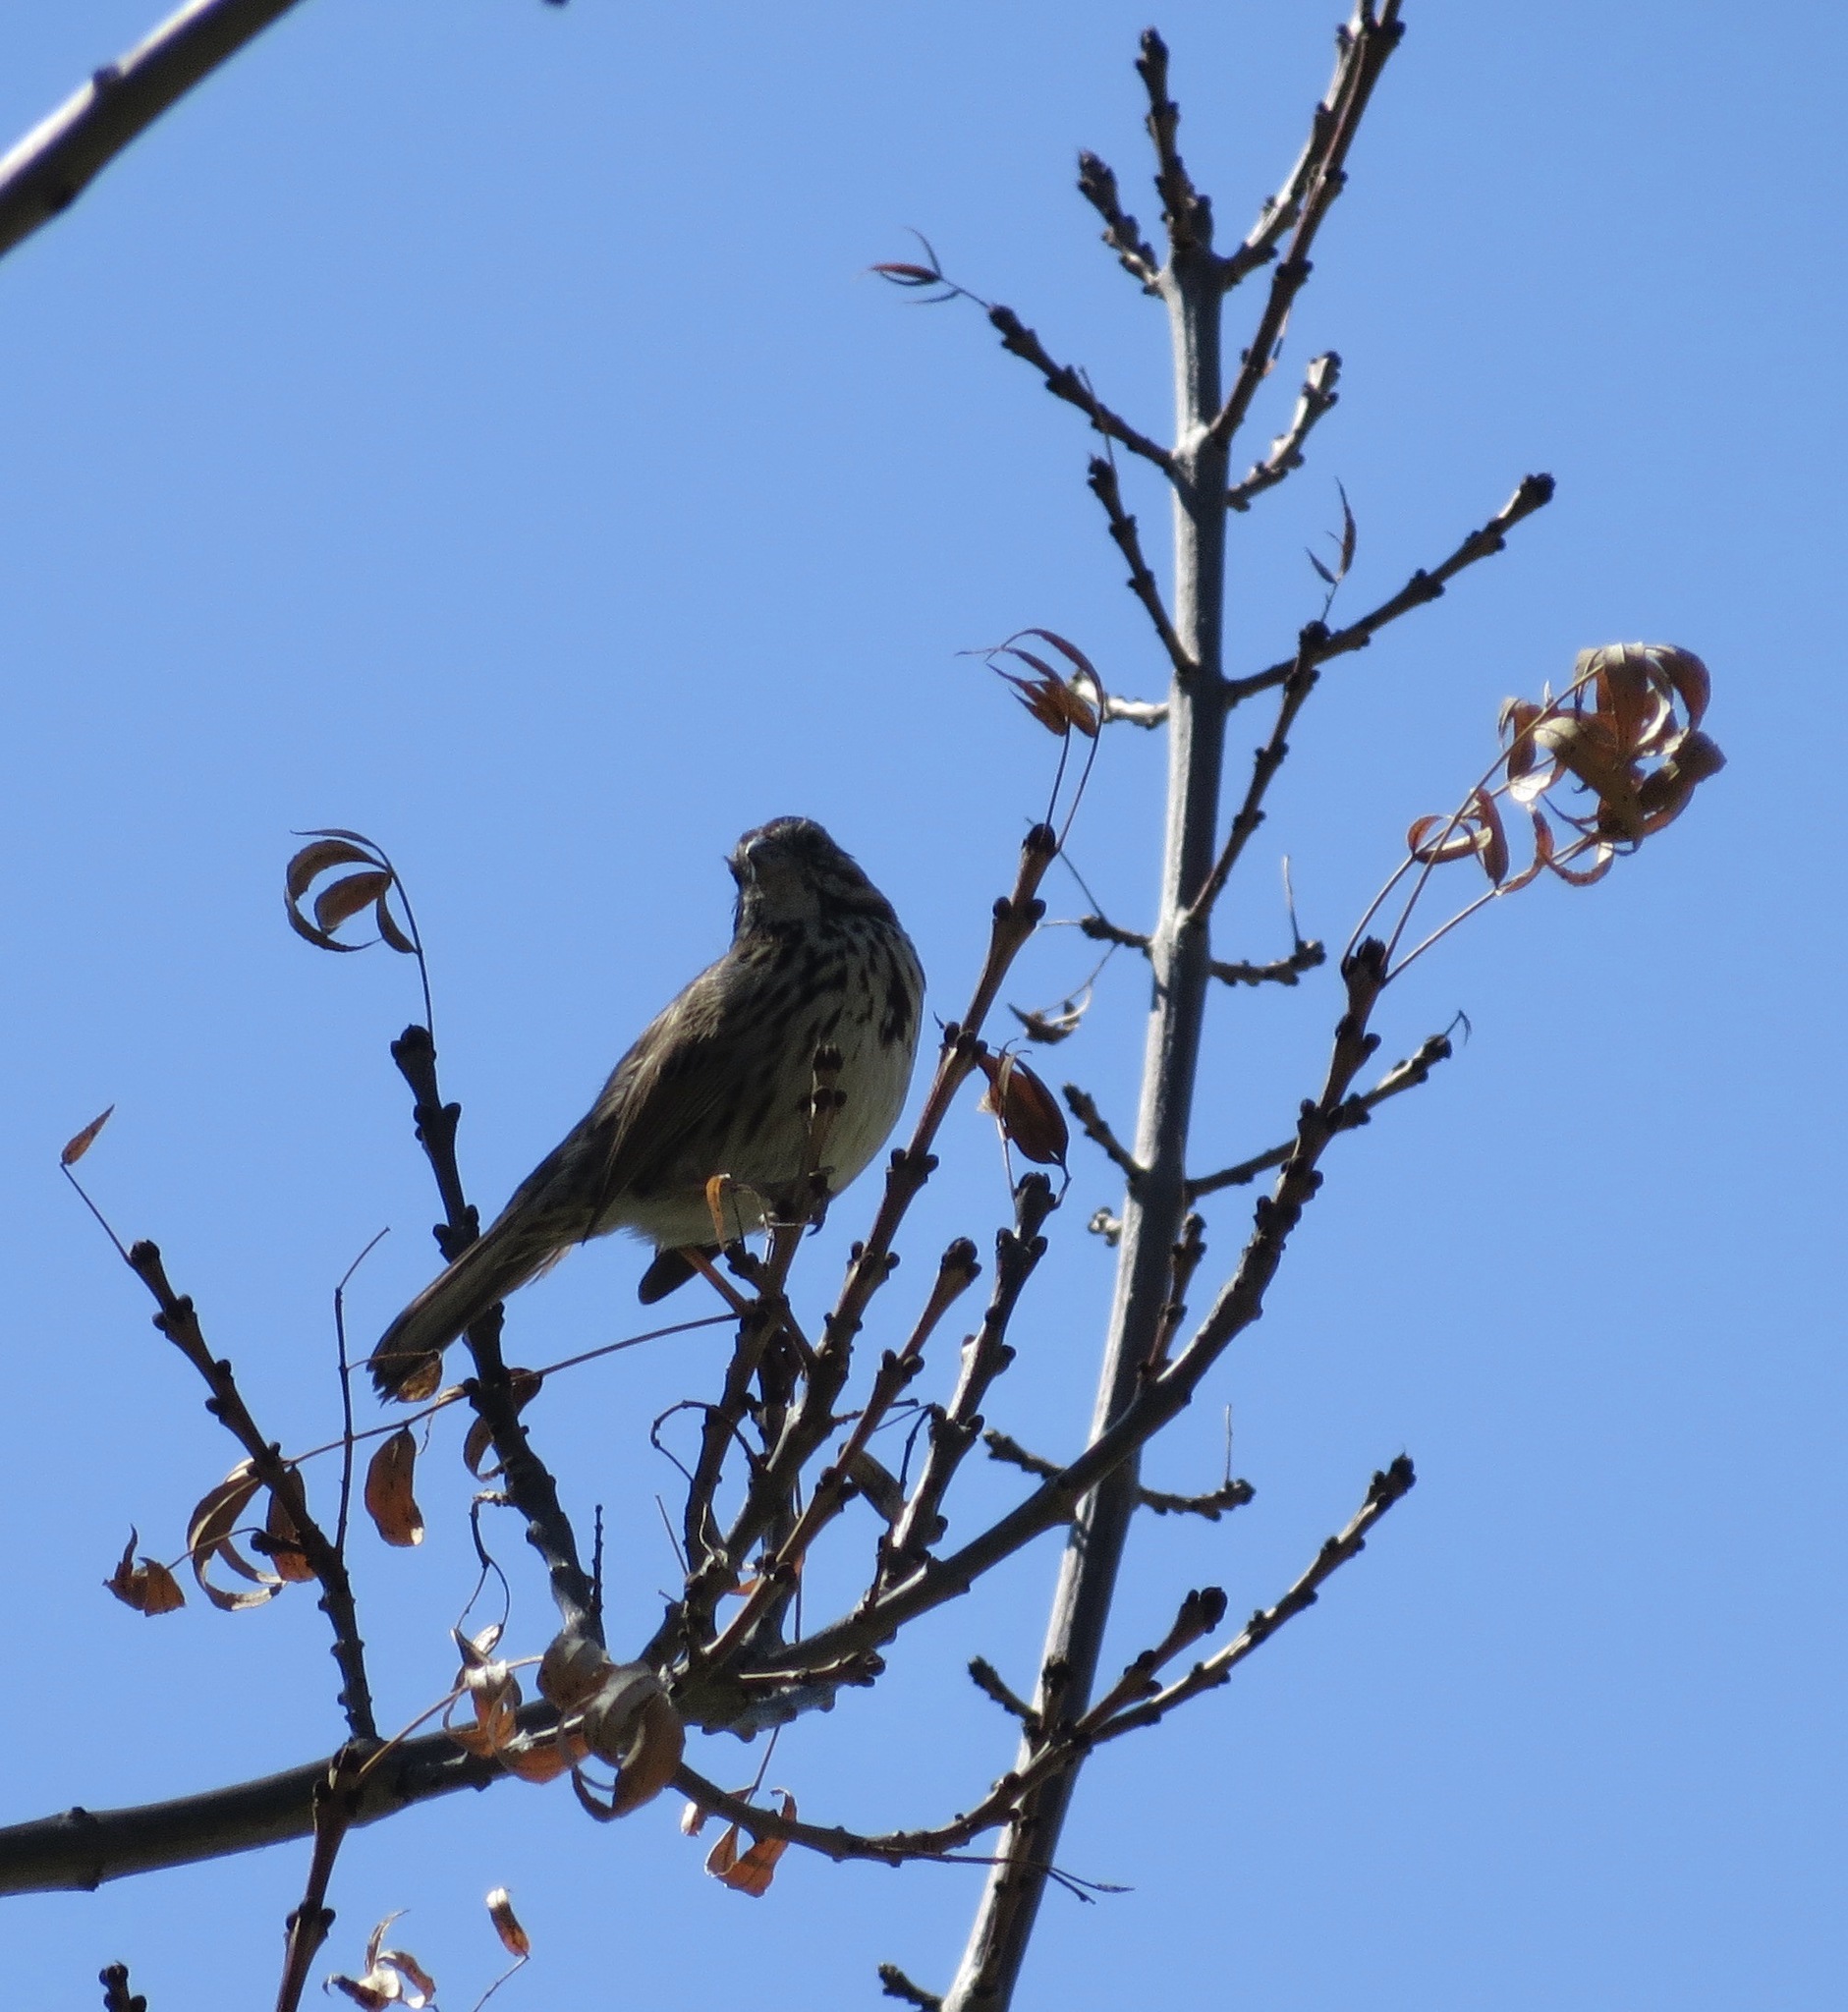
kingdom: Animalia
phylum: Chordata
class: Aves
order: Passeriformes
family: Passerellidae
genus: Melospiza
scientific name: Melospiza melodia
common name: Song sparrow
